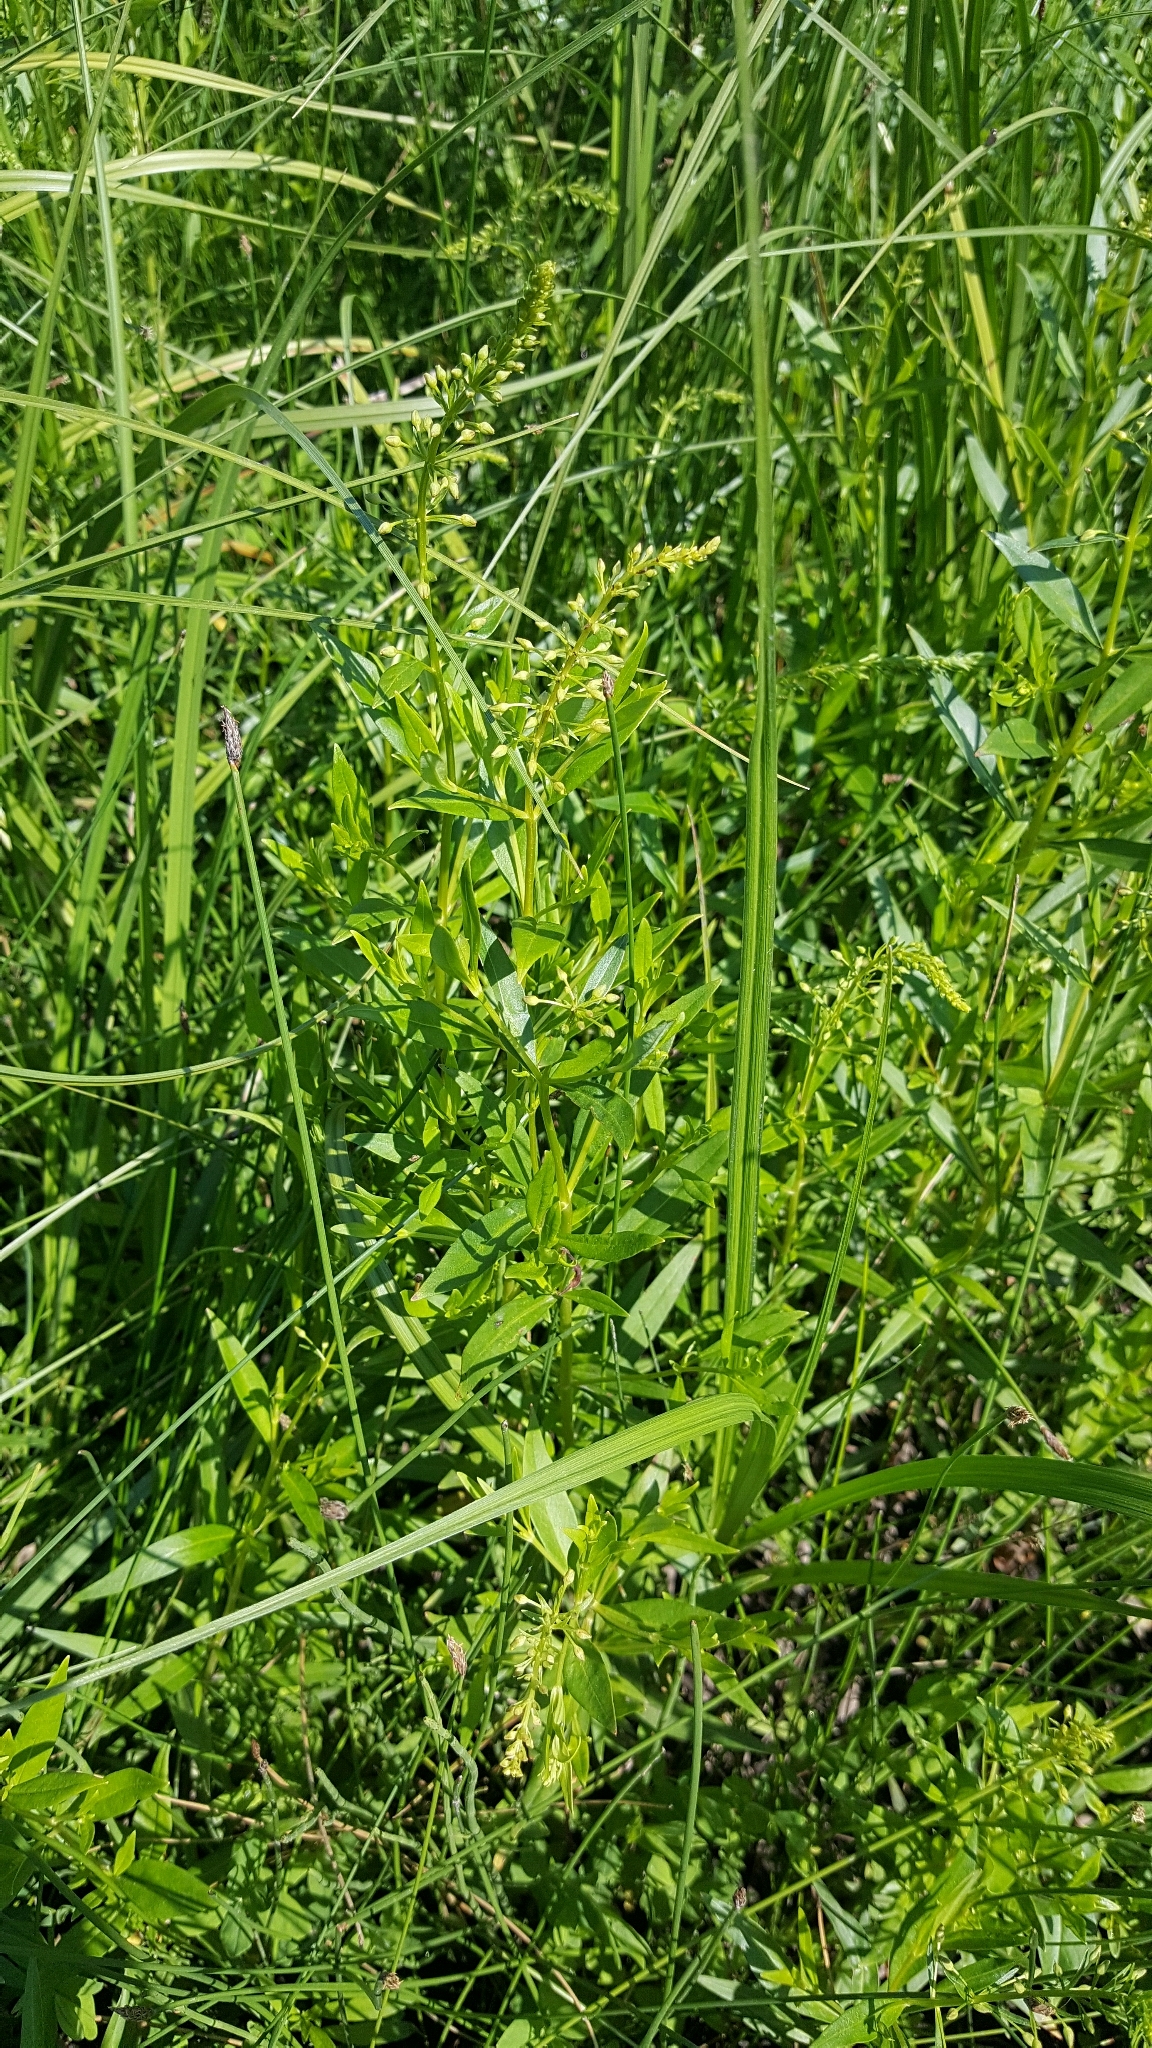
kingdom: Plantae
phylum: Tracheophyta
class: Magnoliopsida
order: Ericales
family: Primulaceae
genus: Lysimachia
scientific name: Lysimachia terrestris
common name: Lake loosestrife
